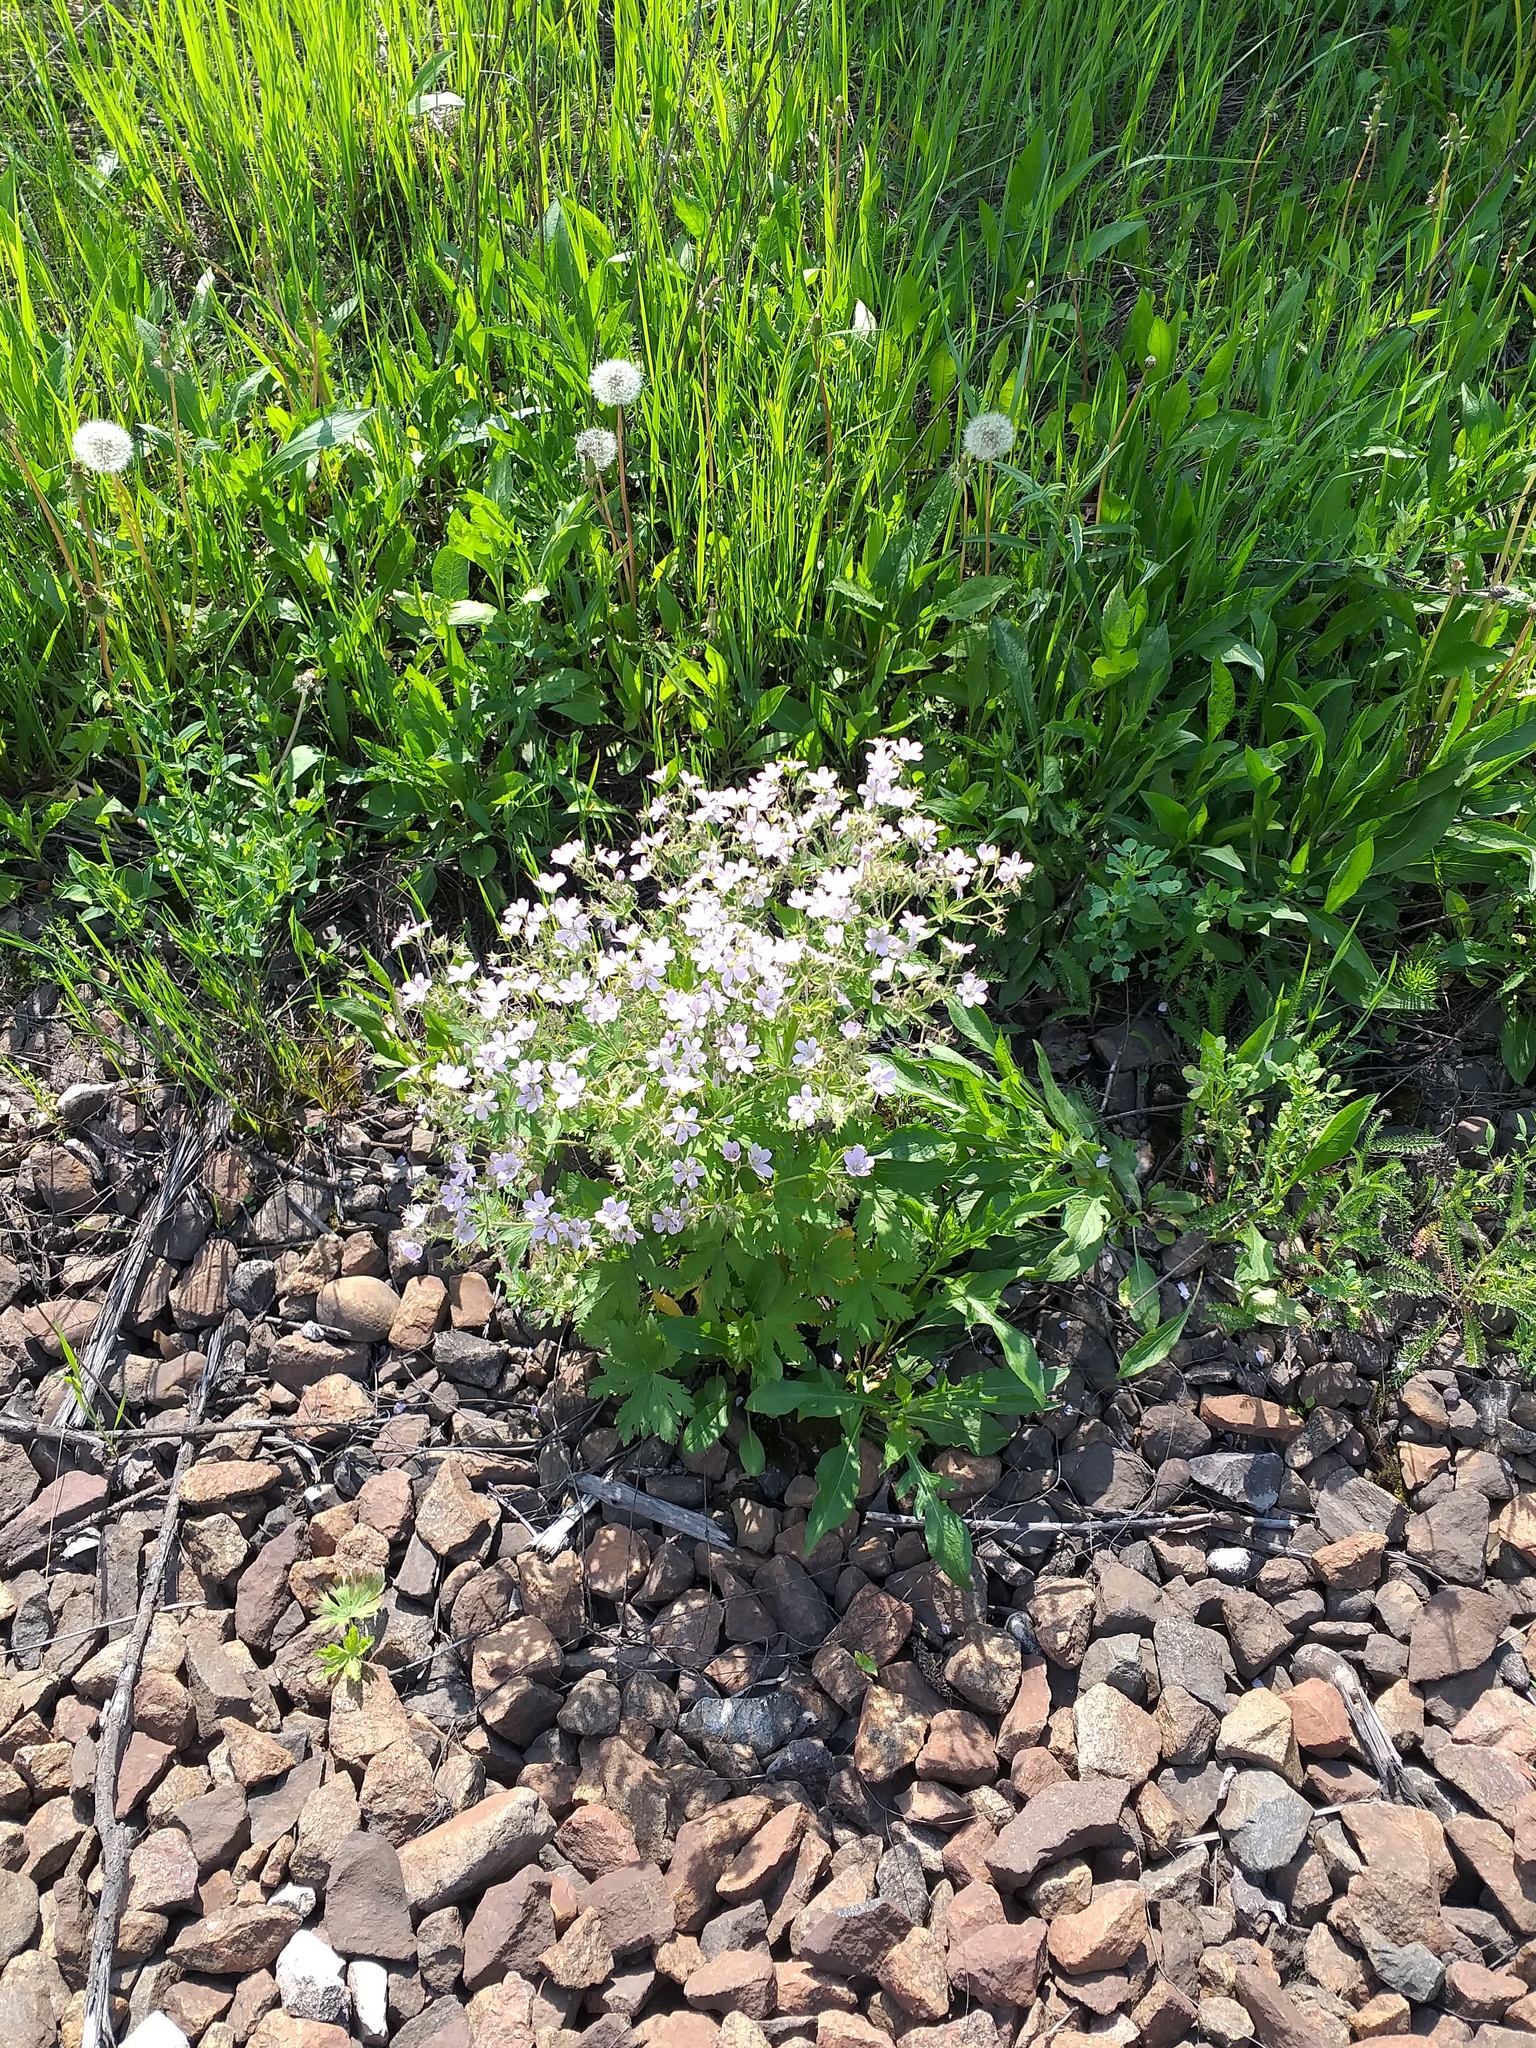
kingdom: Plantae
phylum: Tracheophyta
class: Magnoliopsida
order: Geraniales
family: Geraniaceae
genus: Geranium
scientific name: Geranium sylvaticum
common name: Wood crane's-bill
